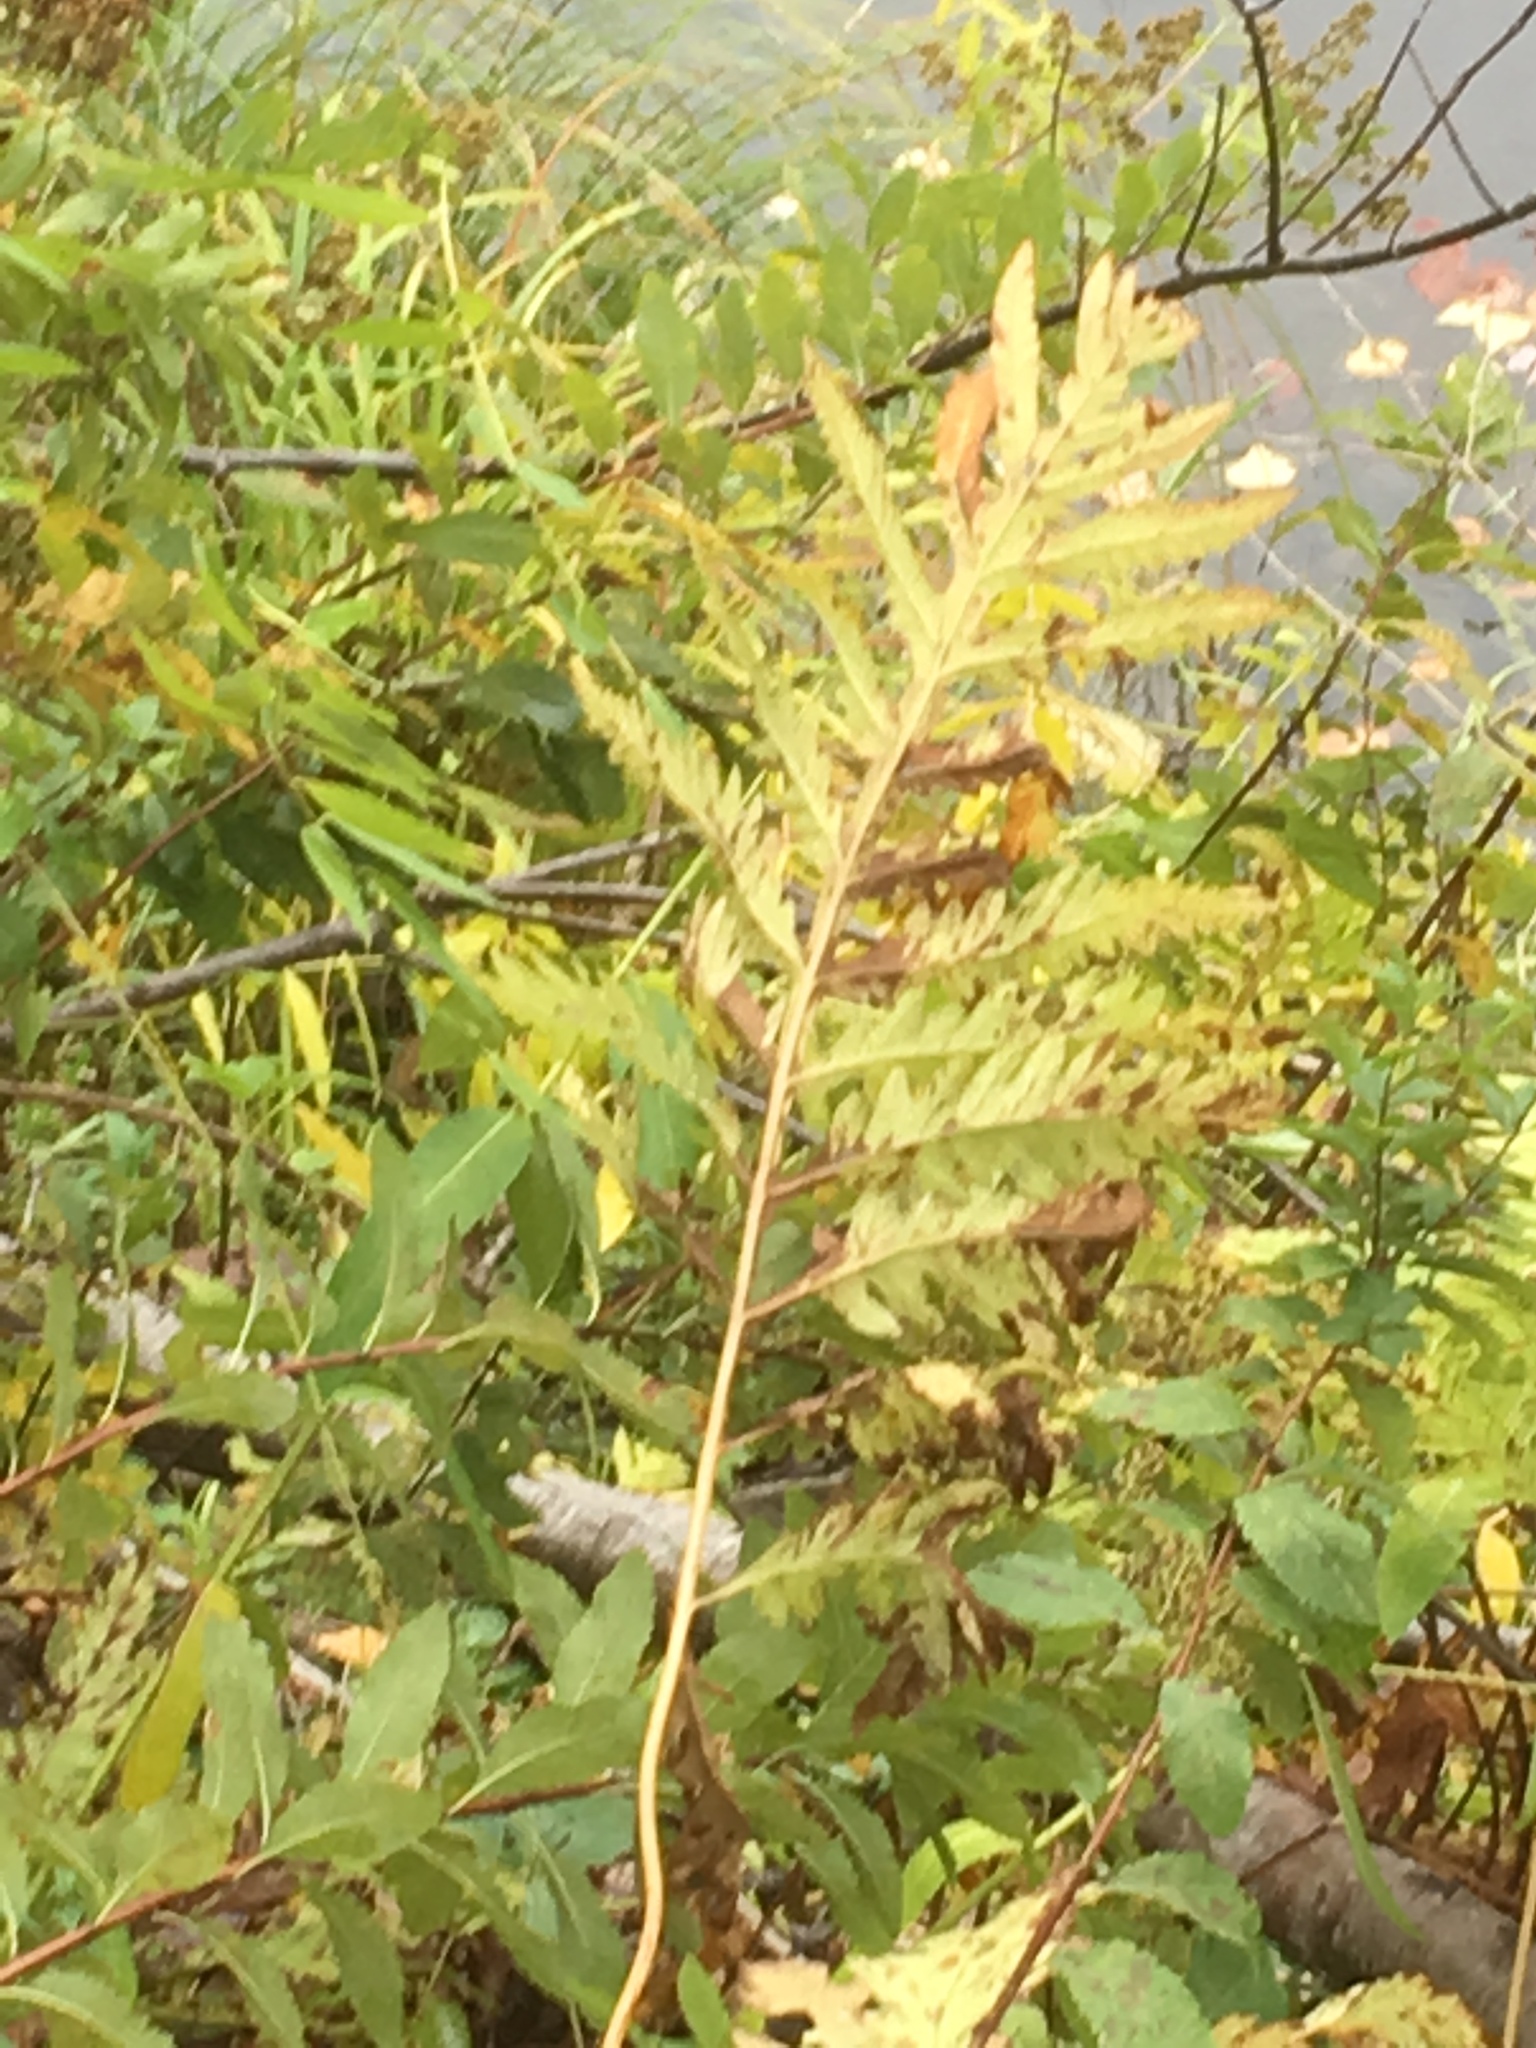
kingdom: Plantae
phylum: Tracheophyta
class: Polypodiopsida
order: Polypodiales
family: Onocleaceae
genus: Onoclea
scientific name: Onoclea sensibilis
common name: Sensitive fern
